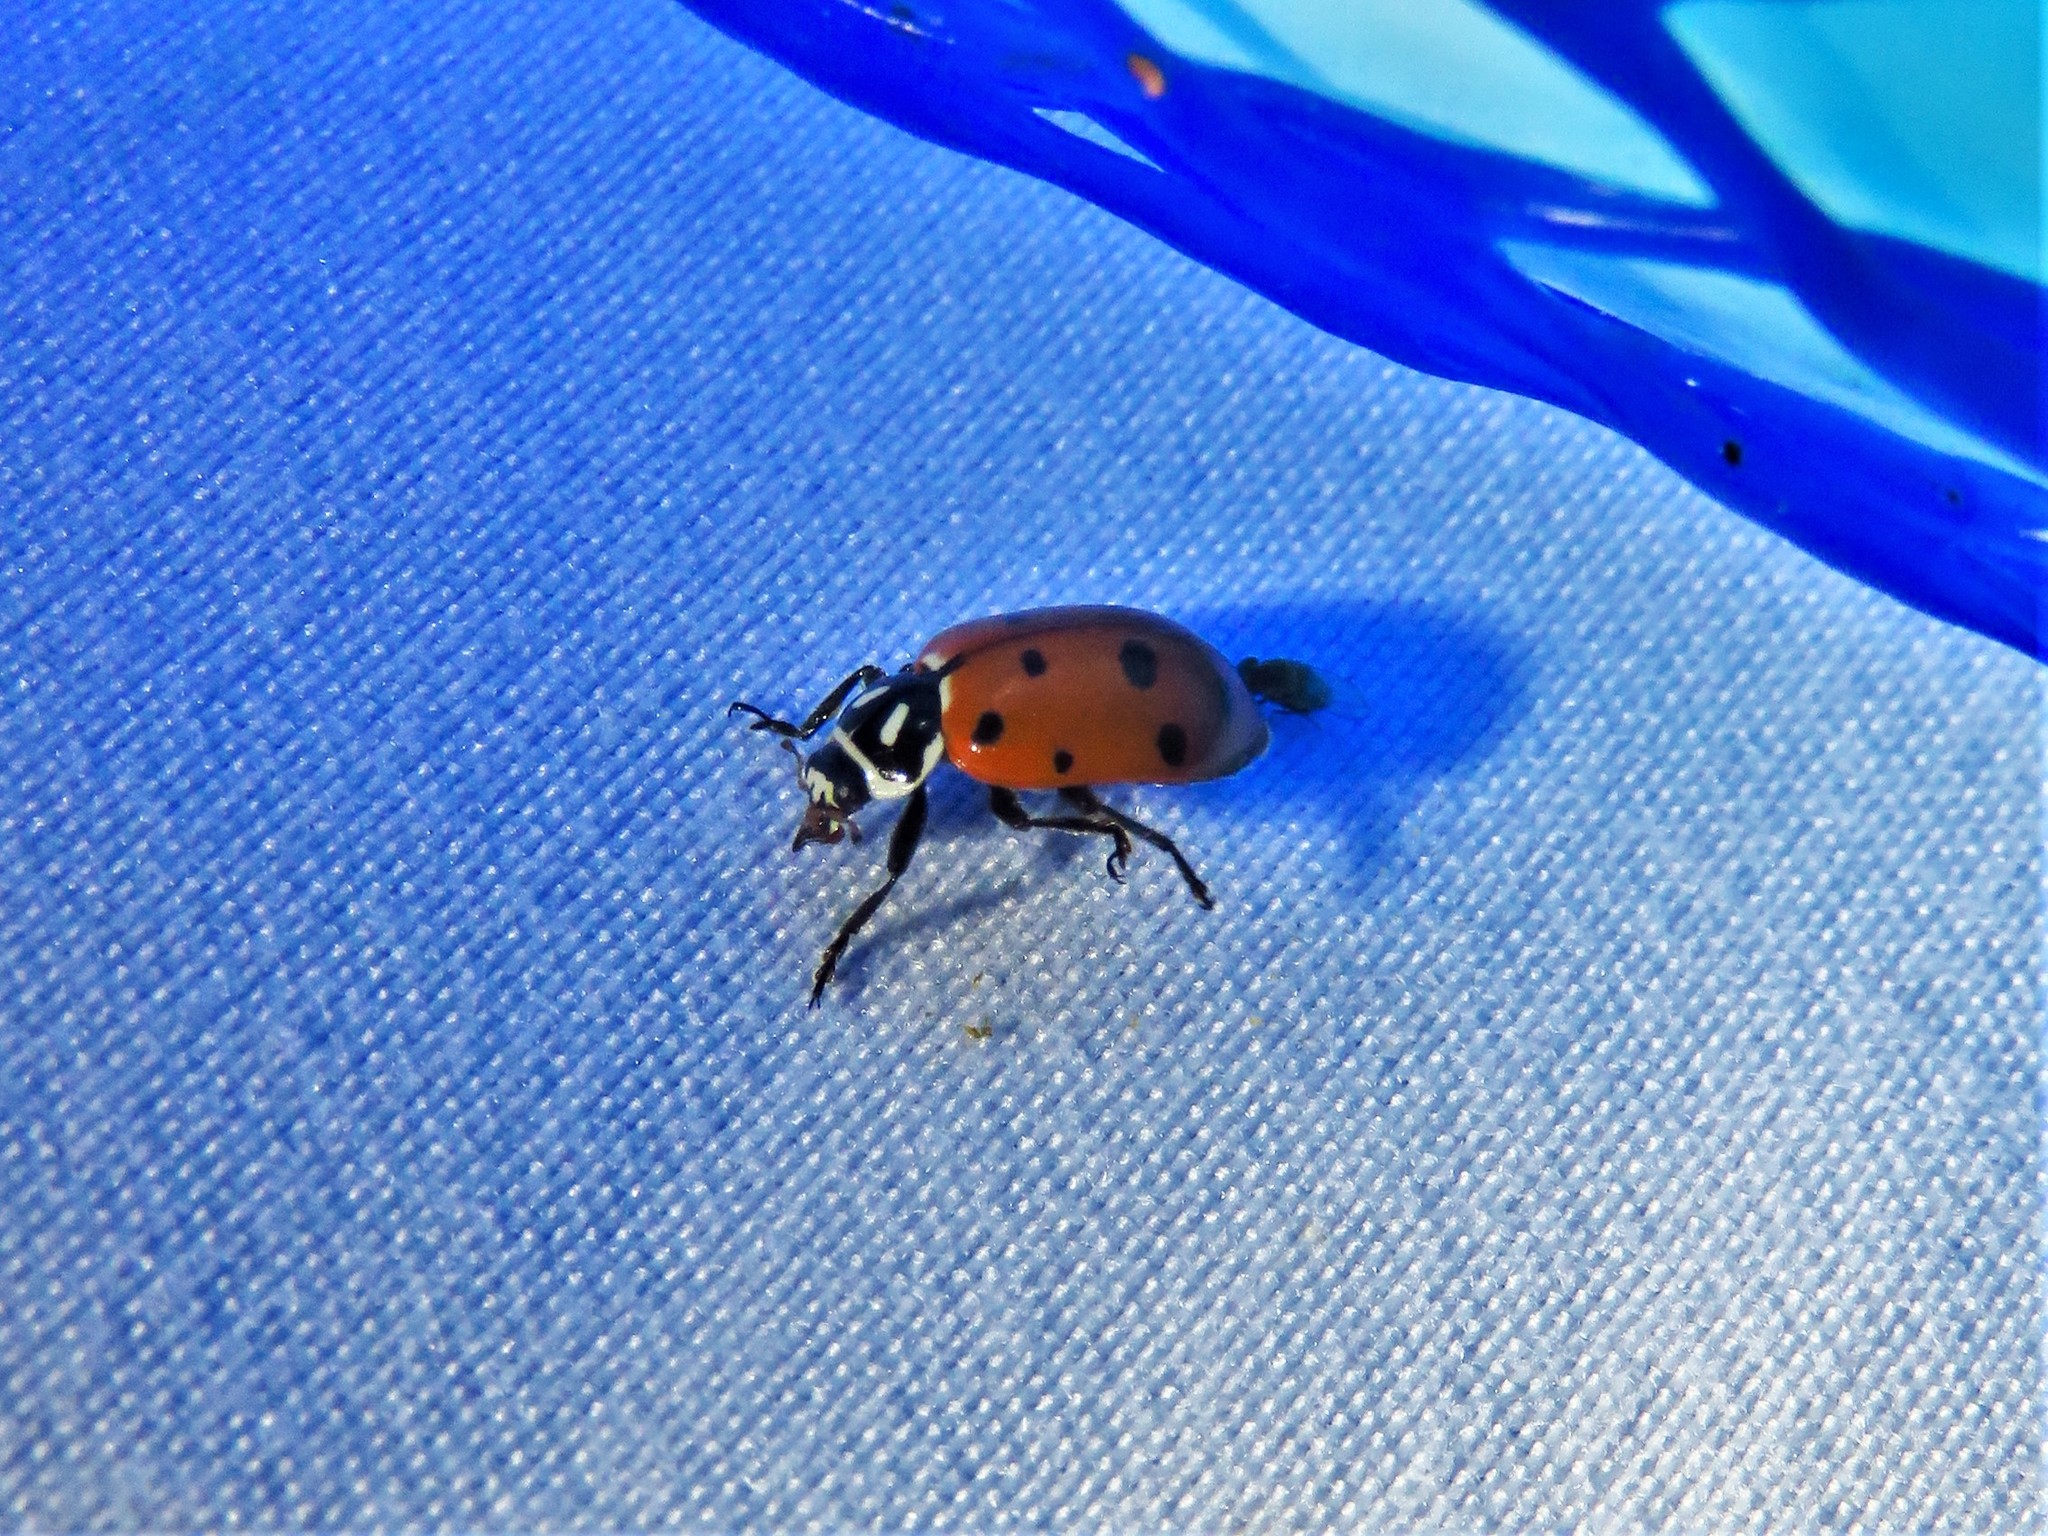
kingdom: Animalia
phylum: Arthropoda
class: Insecta
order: Coleoptera
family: Coccinellidae
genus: Hippodamia
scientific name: Hippodamia convergens
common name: Convergent lady beetle
